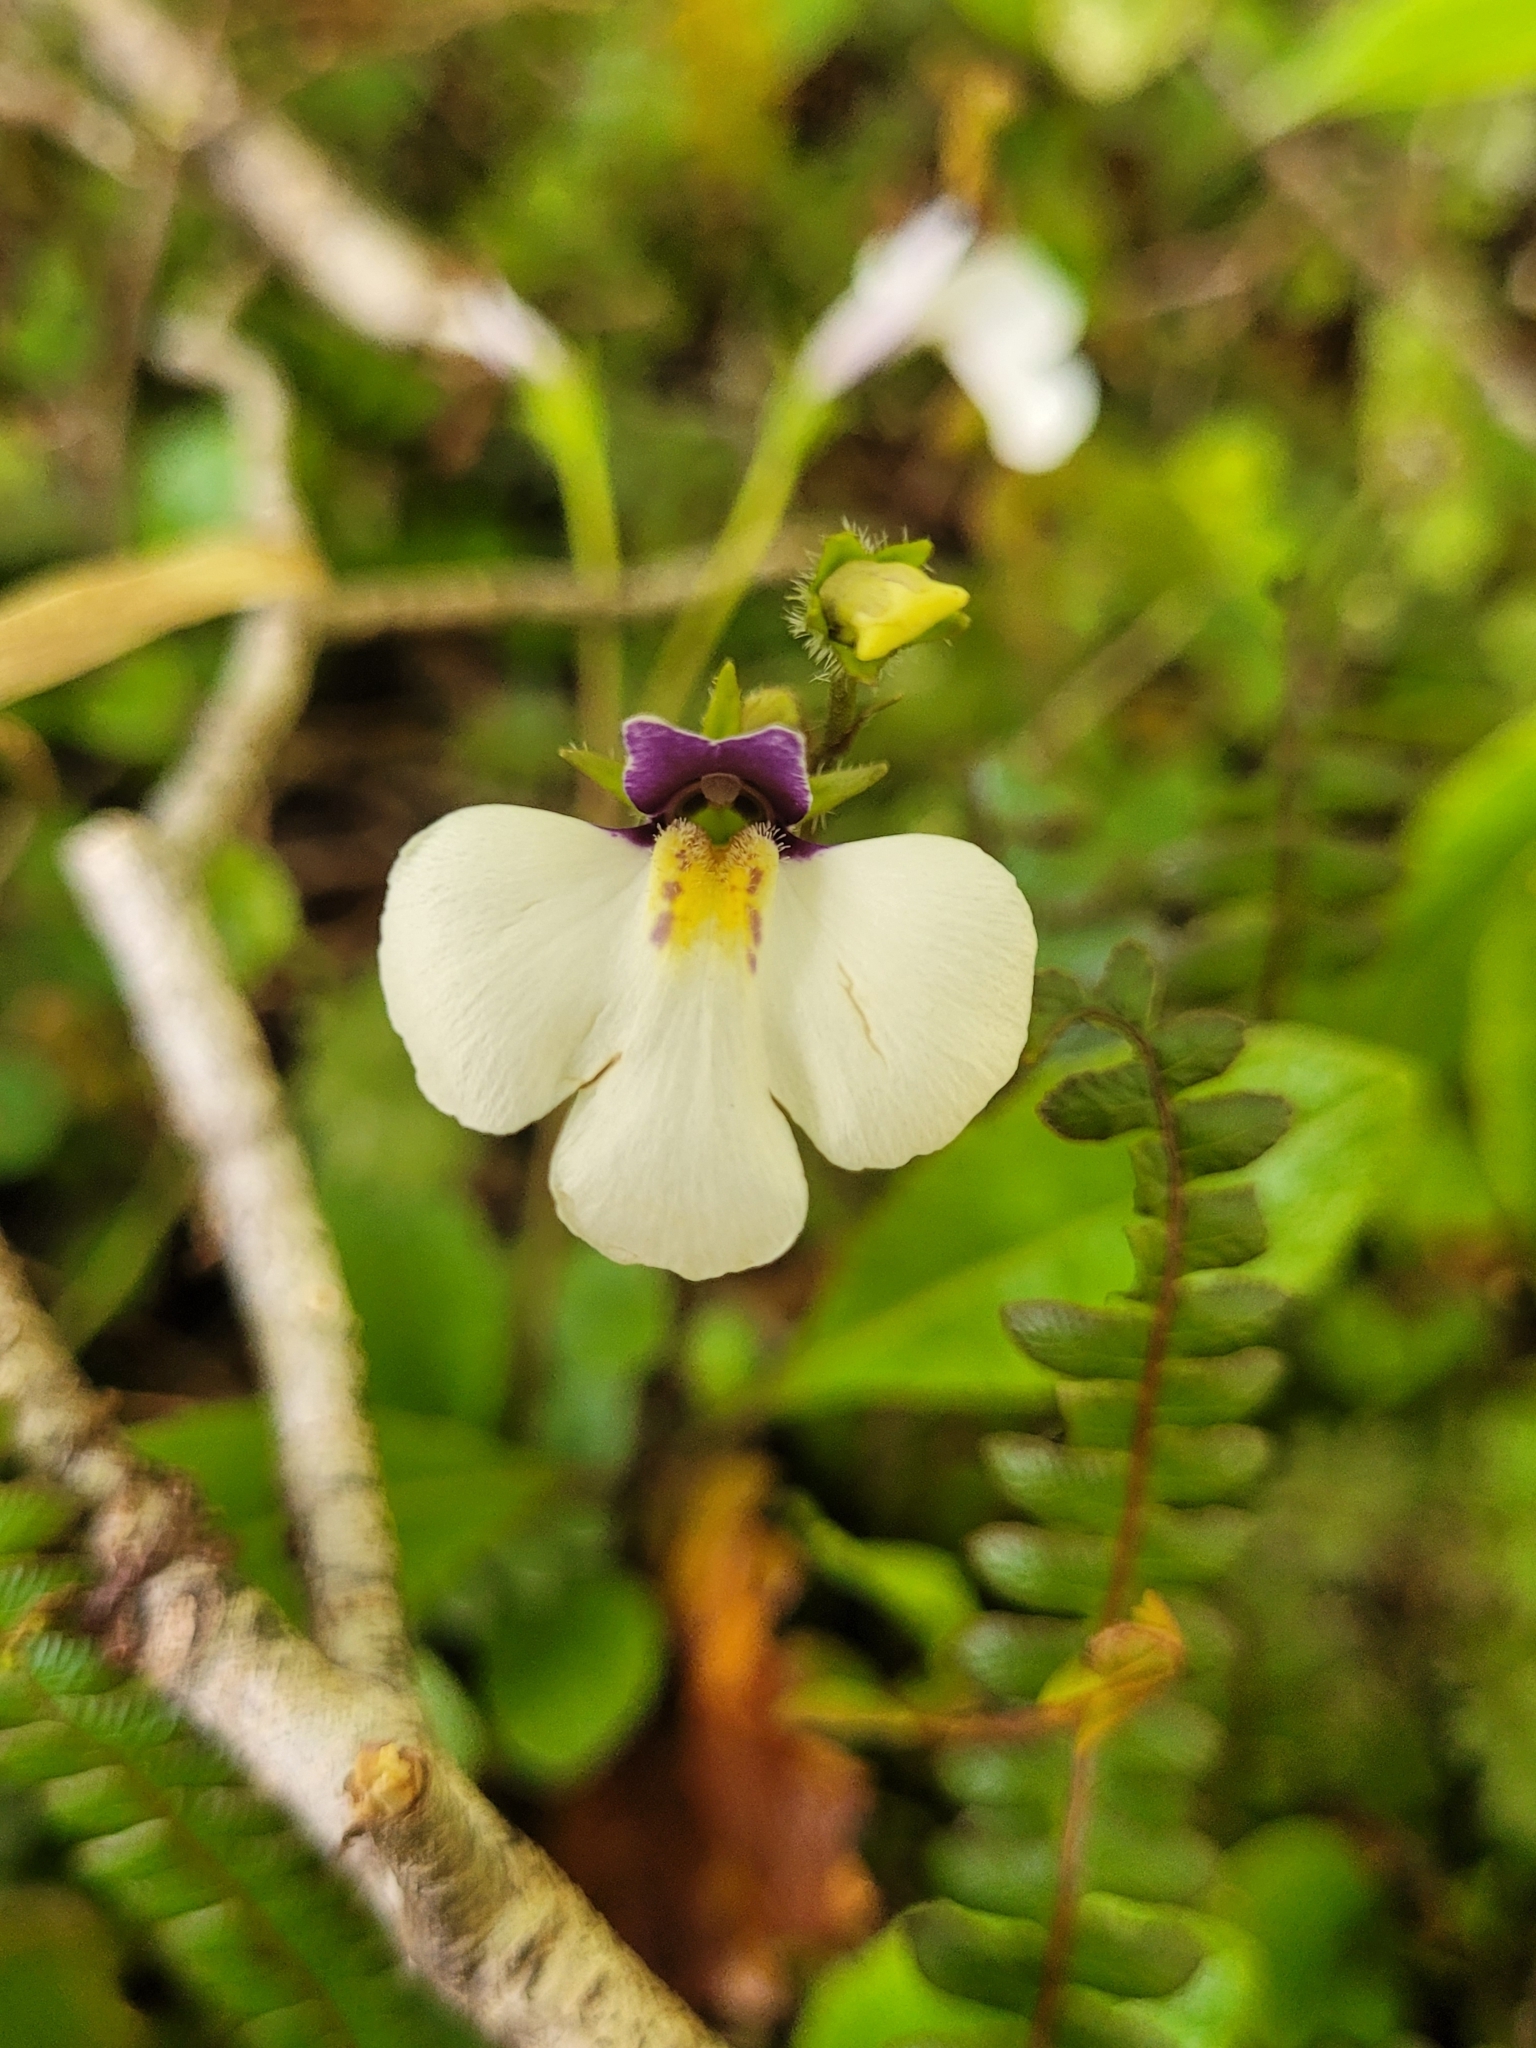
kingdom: Plantae
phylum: Tracheophyta
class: Magnoliopsida
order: Lamiales
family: Mazaceae
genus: Mazus
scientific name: Mazus radicans
